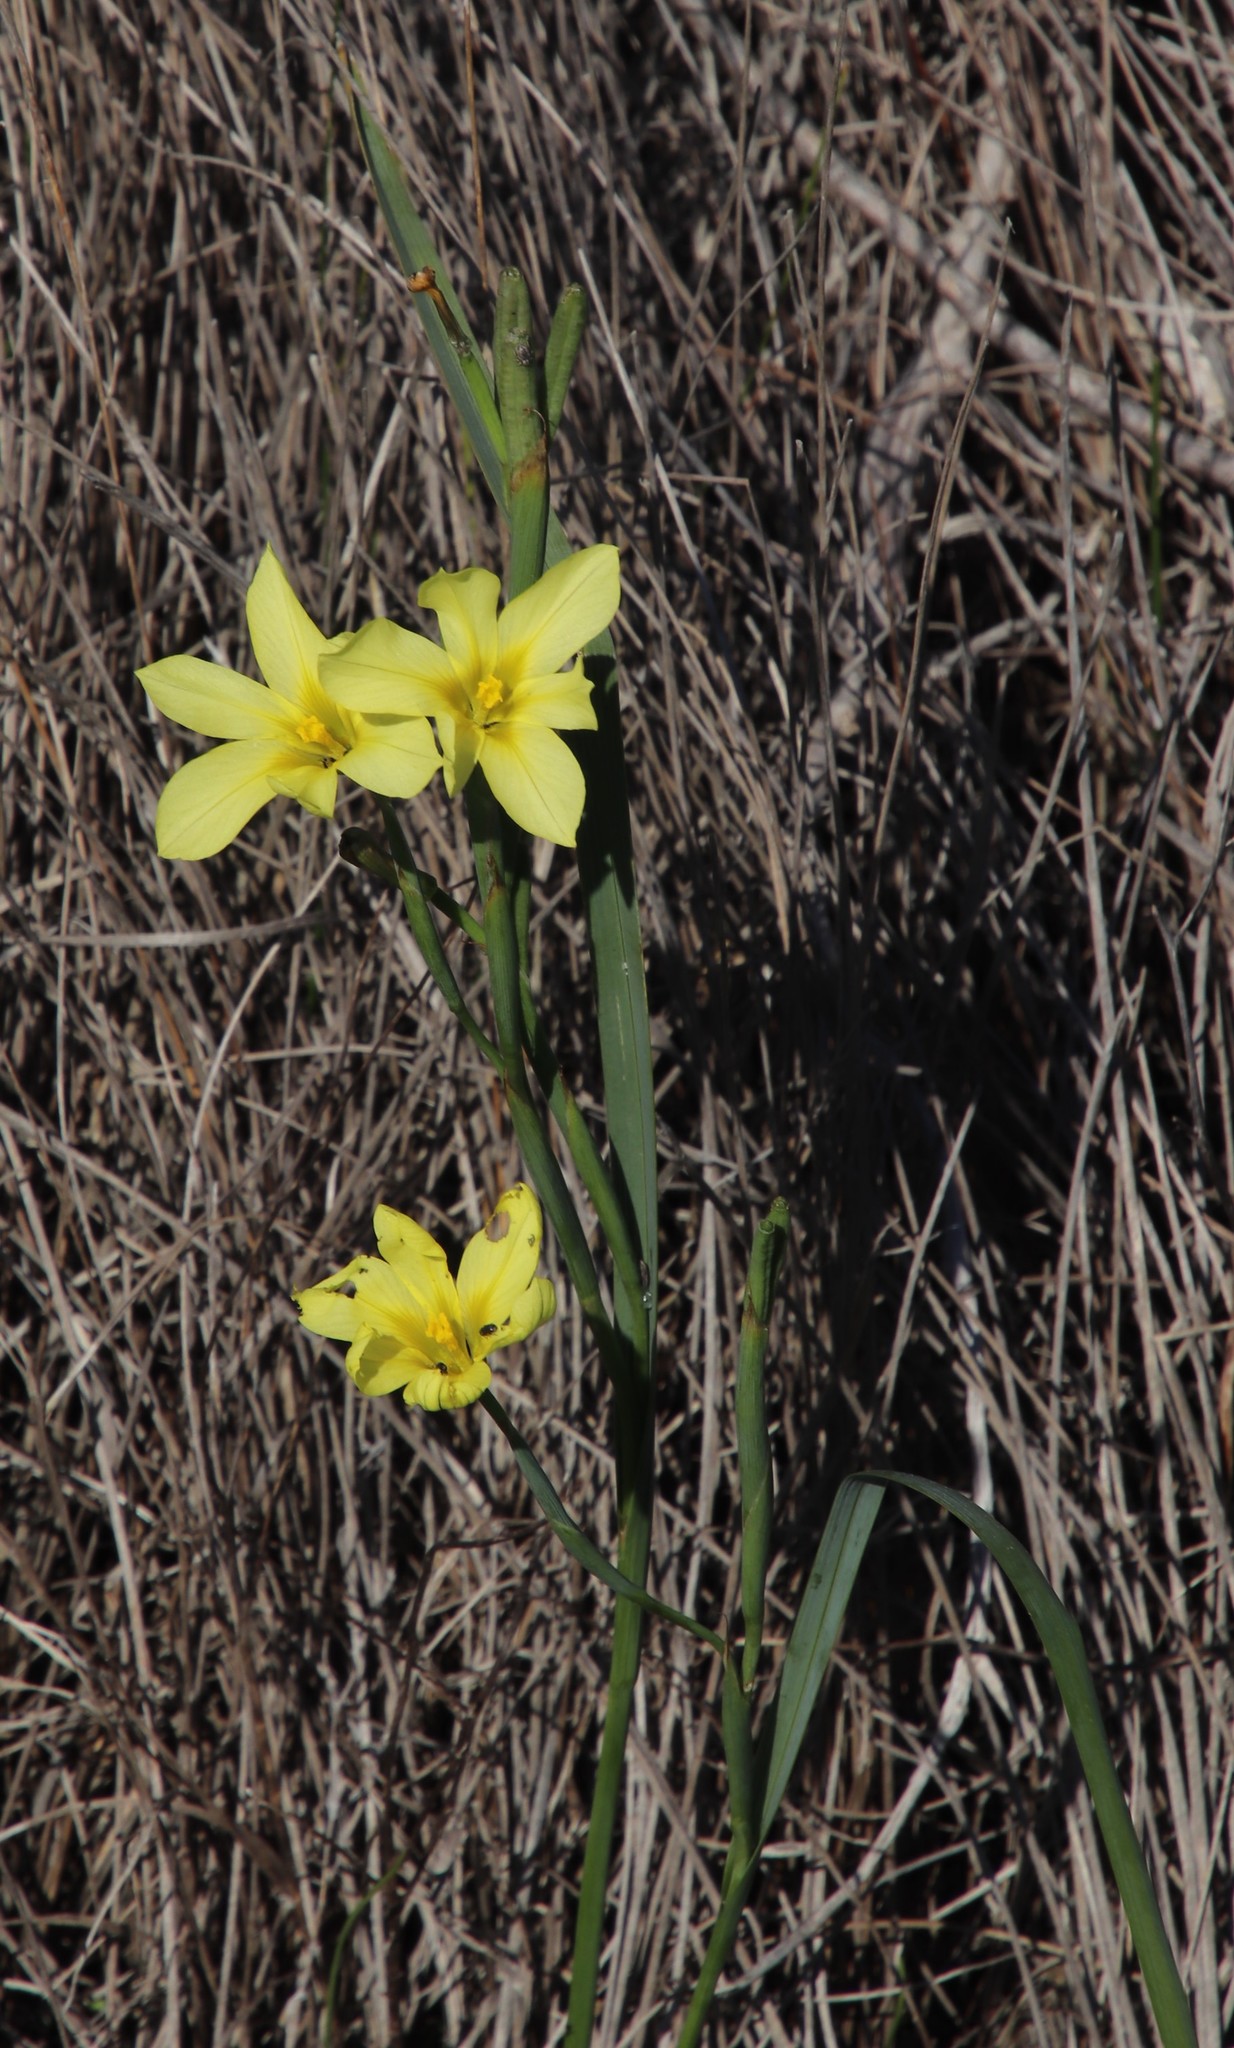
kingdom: Plantae
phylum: Tracheophyta
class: Liliopsida
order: Asparagales
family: Iridaceae
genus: Moraea
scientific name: Moraea collina
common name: Cape-tulip
